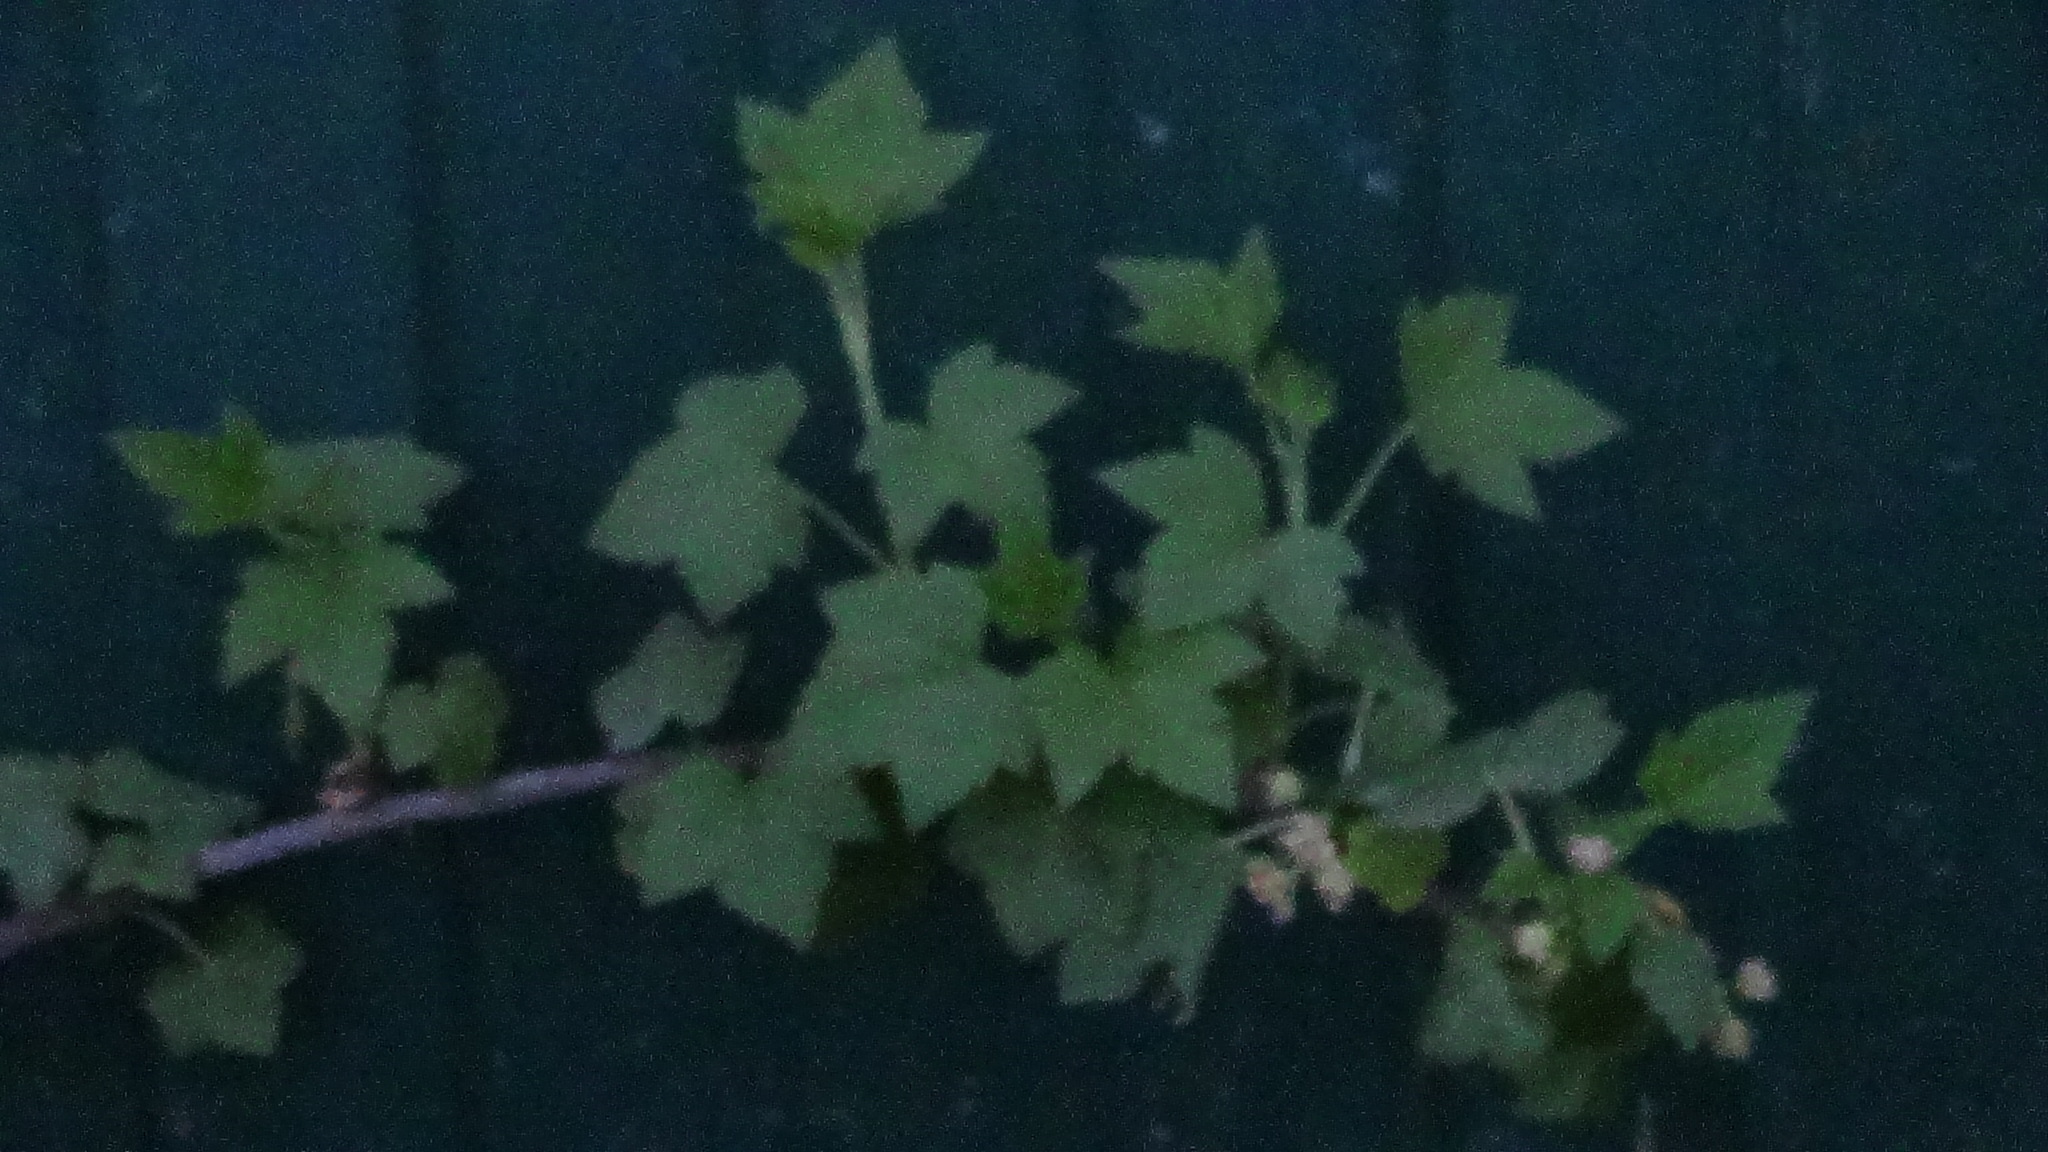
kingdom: Plantae
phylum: Tracheophyta
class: Magnoliopsida
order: Saxifragales
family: Grossulariaceae
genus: Ribes
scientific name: Ribes nigrum
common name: Black currant
